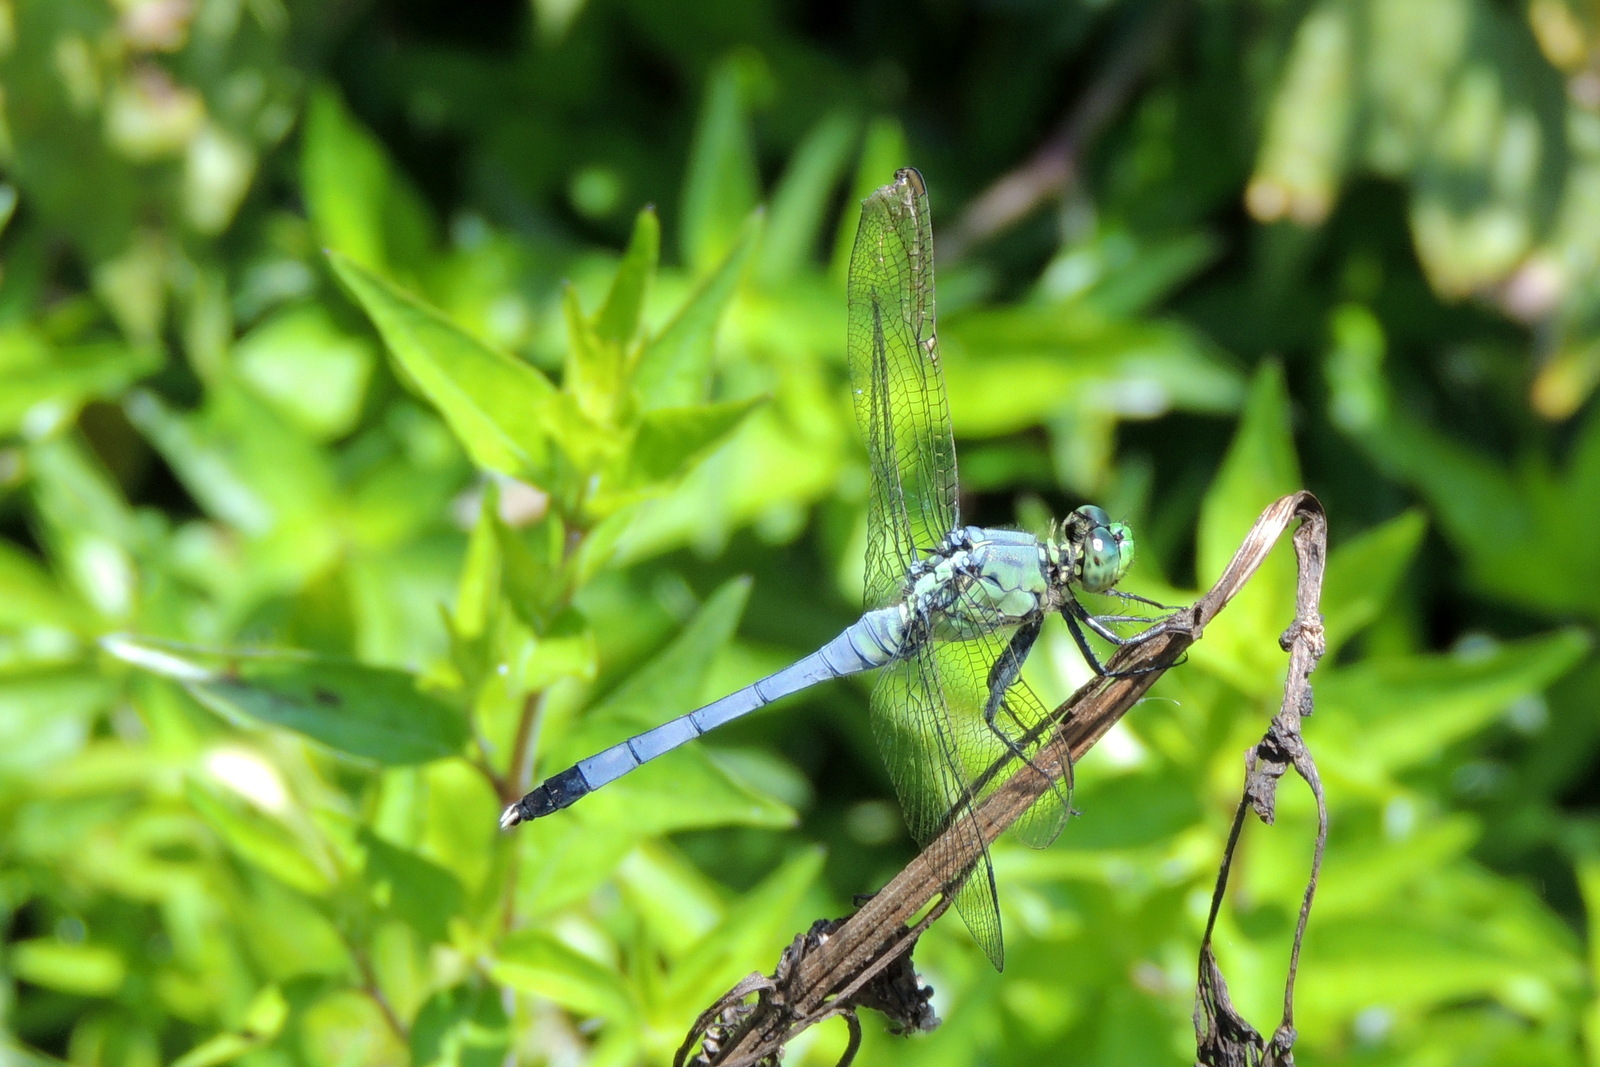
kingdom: Animalia
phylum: Arthropoda
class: Insecta
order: Odonata
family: Libellulidae
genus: Erythemis
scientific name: Erythemis simplicicollis
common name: Eastern pondhawk
